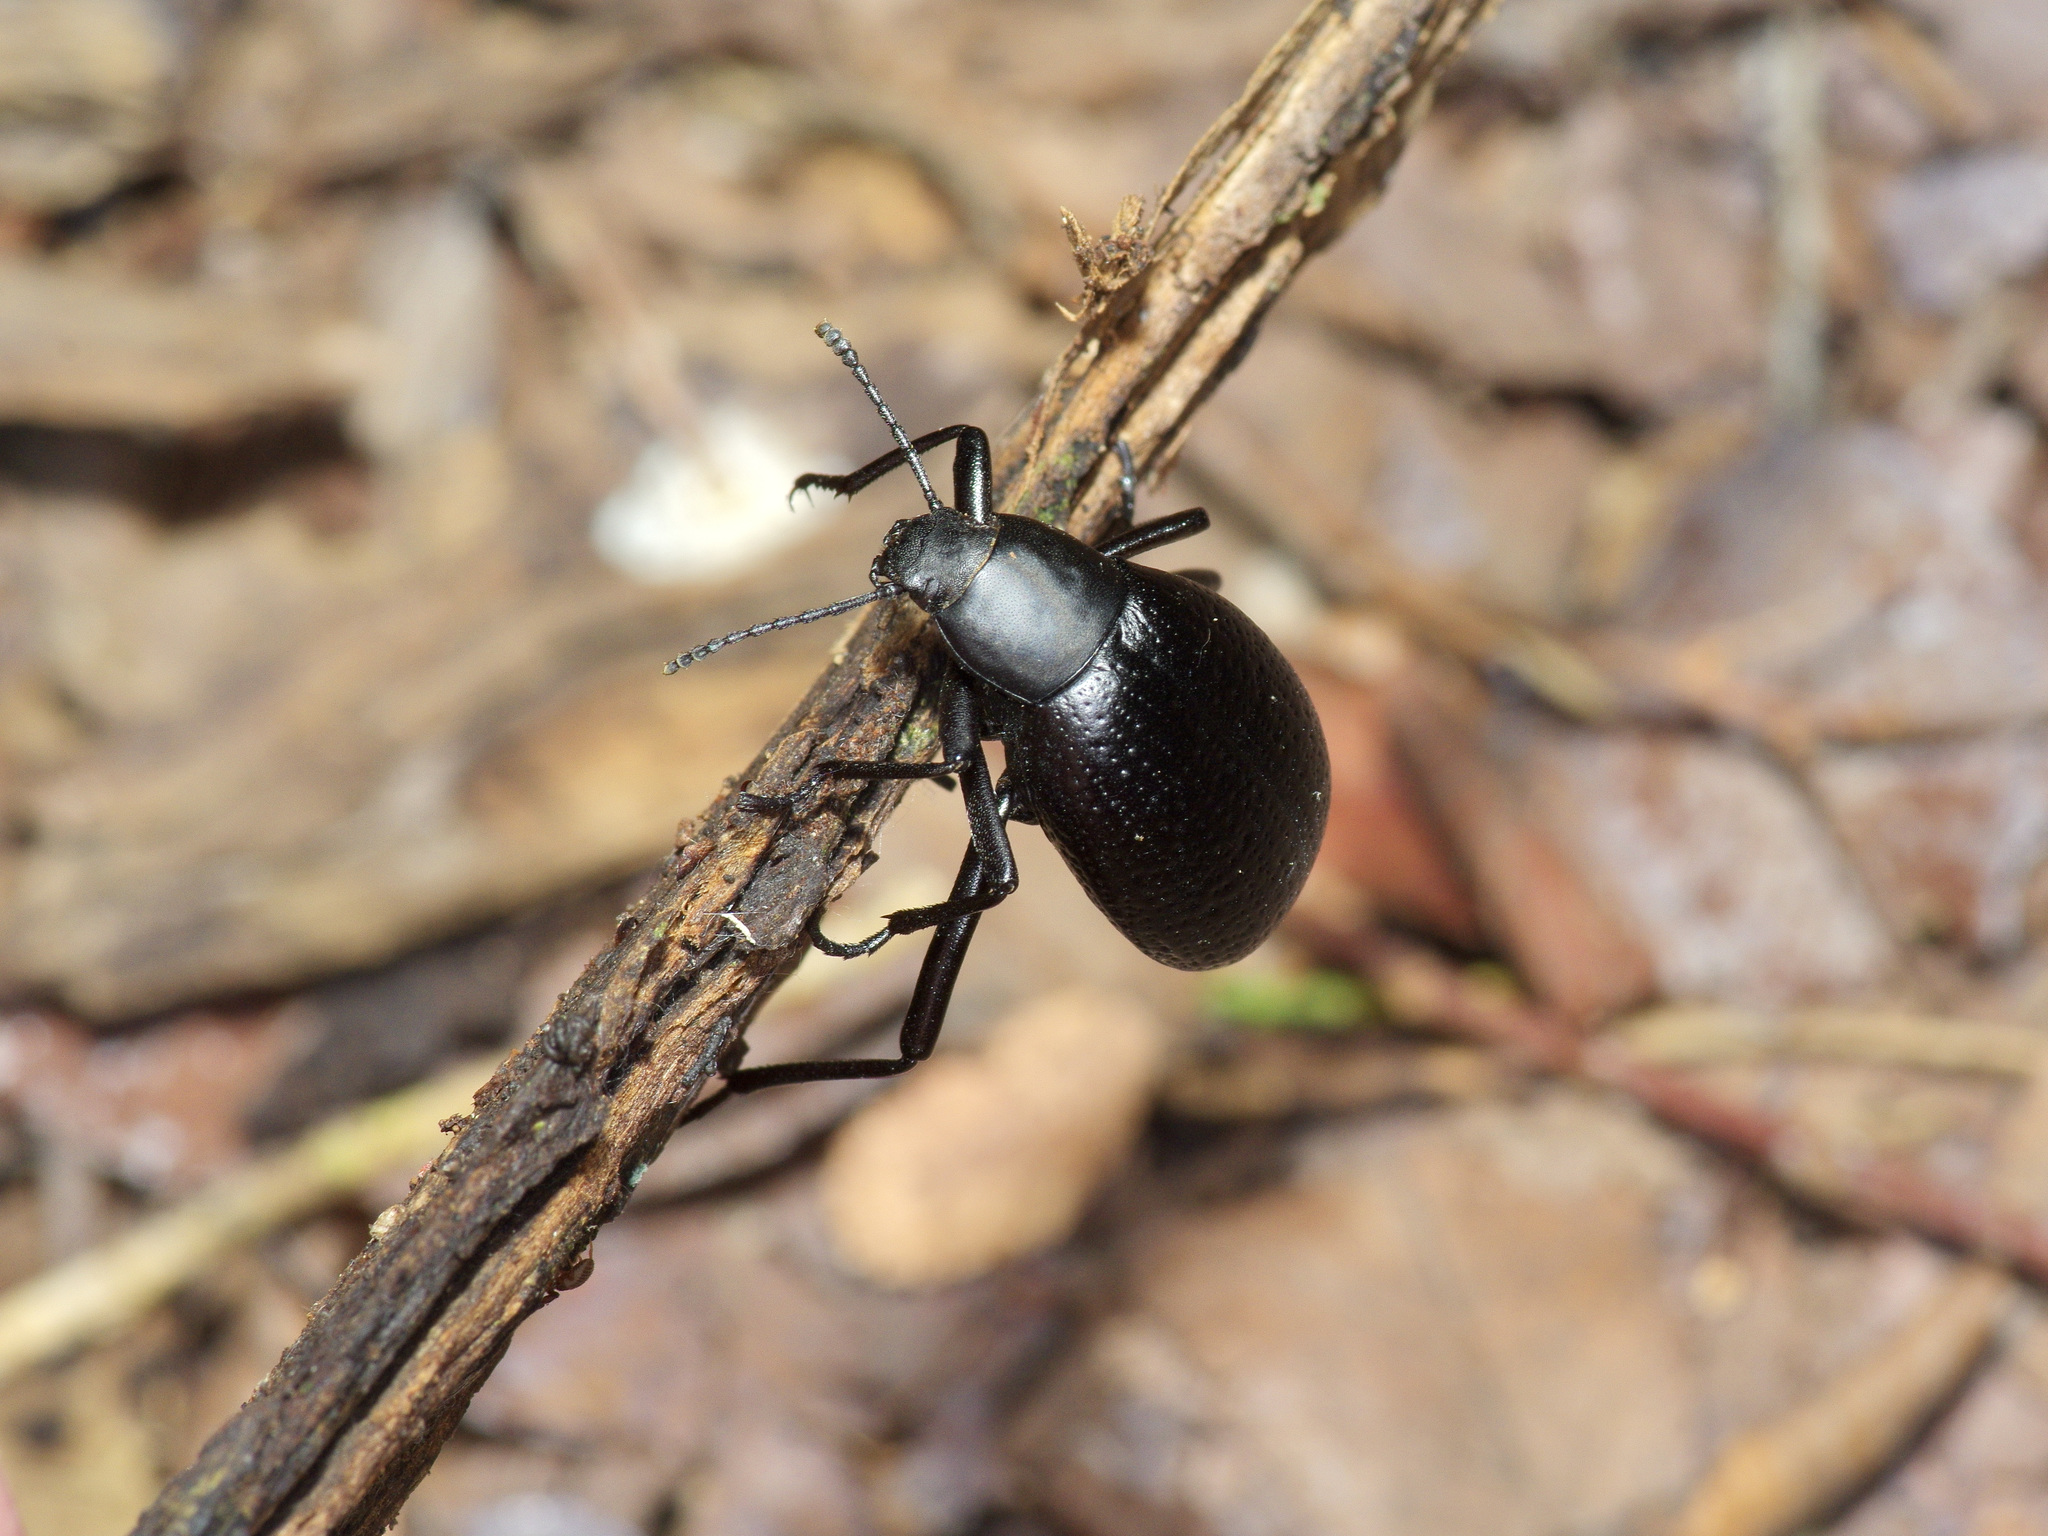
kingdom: Animalia
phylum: Arthropoda
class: Insecta
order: Coleoptera
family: Tenebrionidae
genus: Eleodes
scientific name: Eleodes goryi
